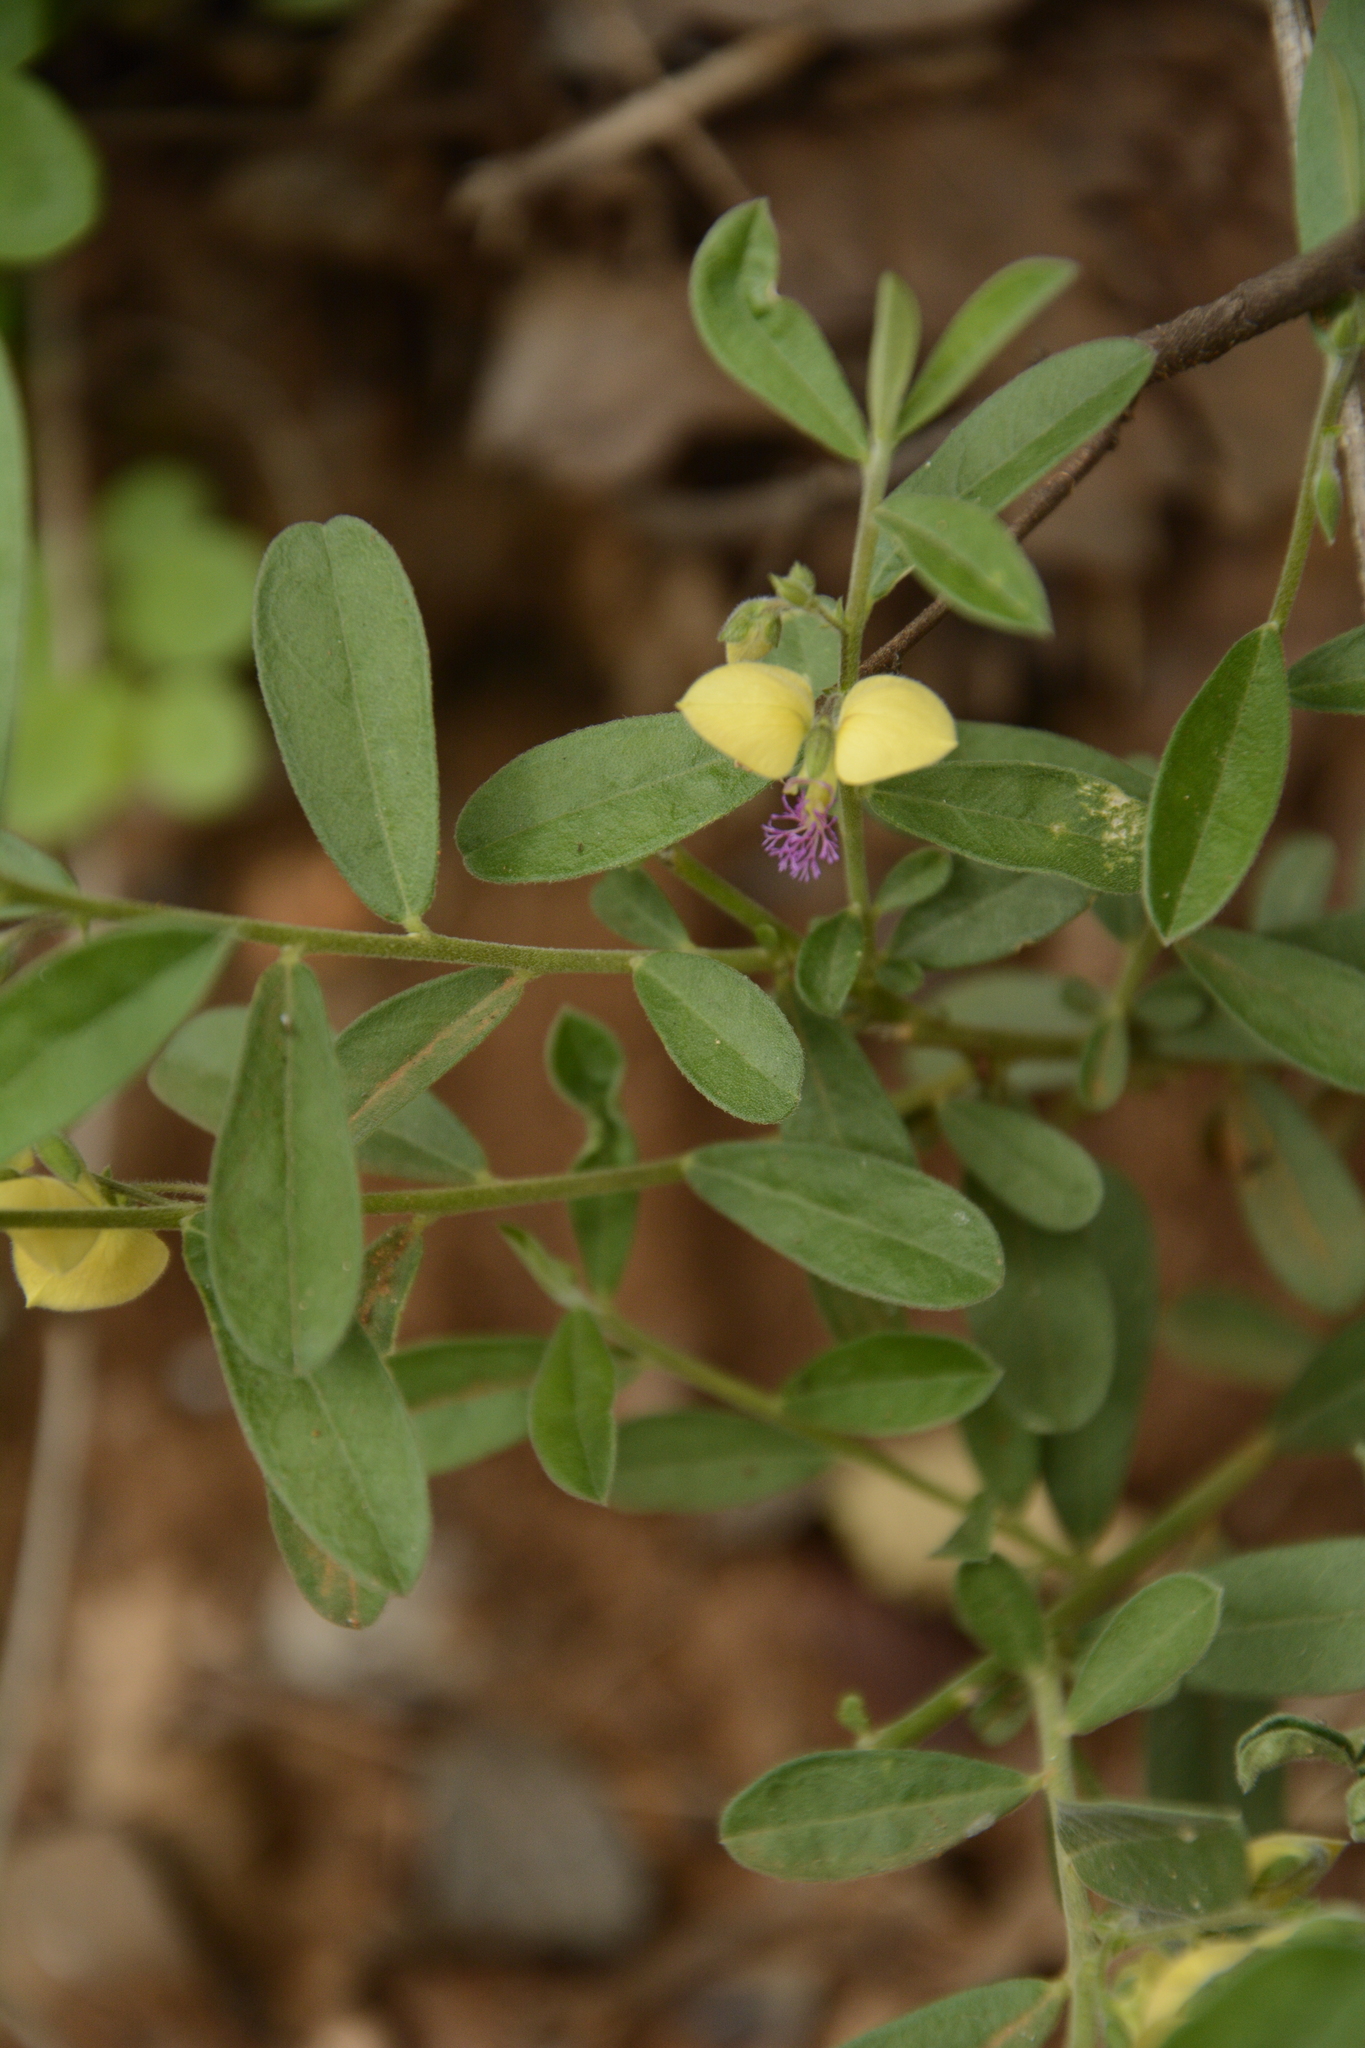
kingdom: Plantae
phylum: Tracheophyta
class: Magnoliopsida
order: Fabales
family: Polygalaceae
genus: Polygala
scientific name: Polygala javana
